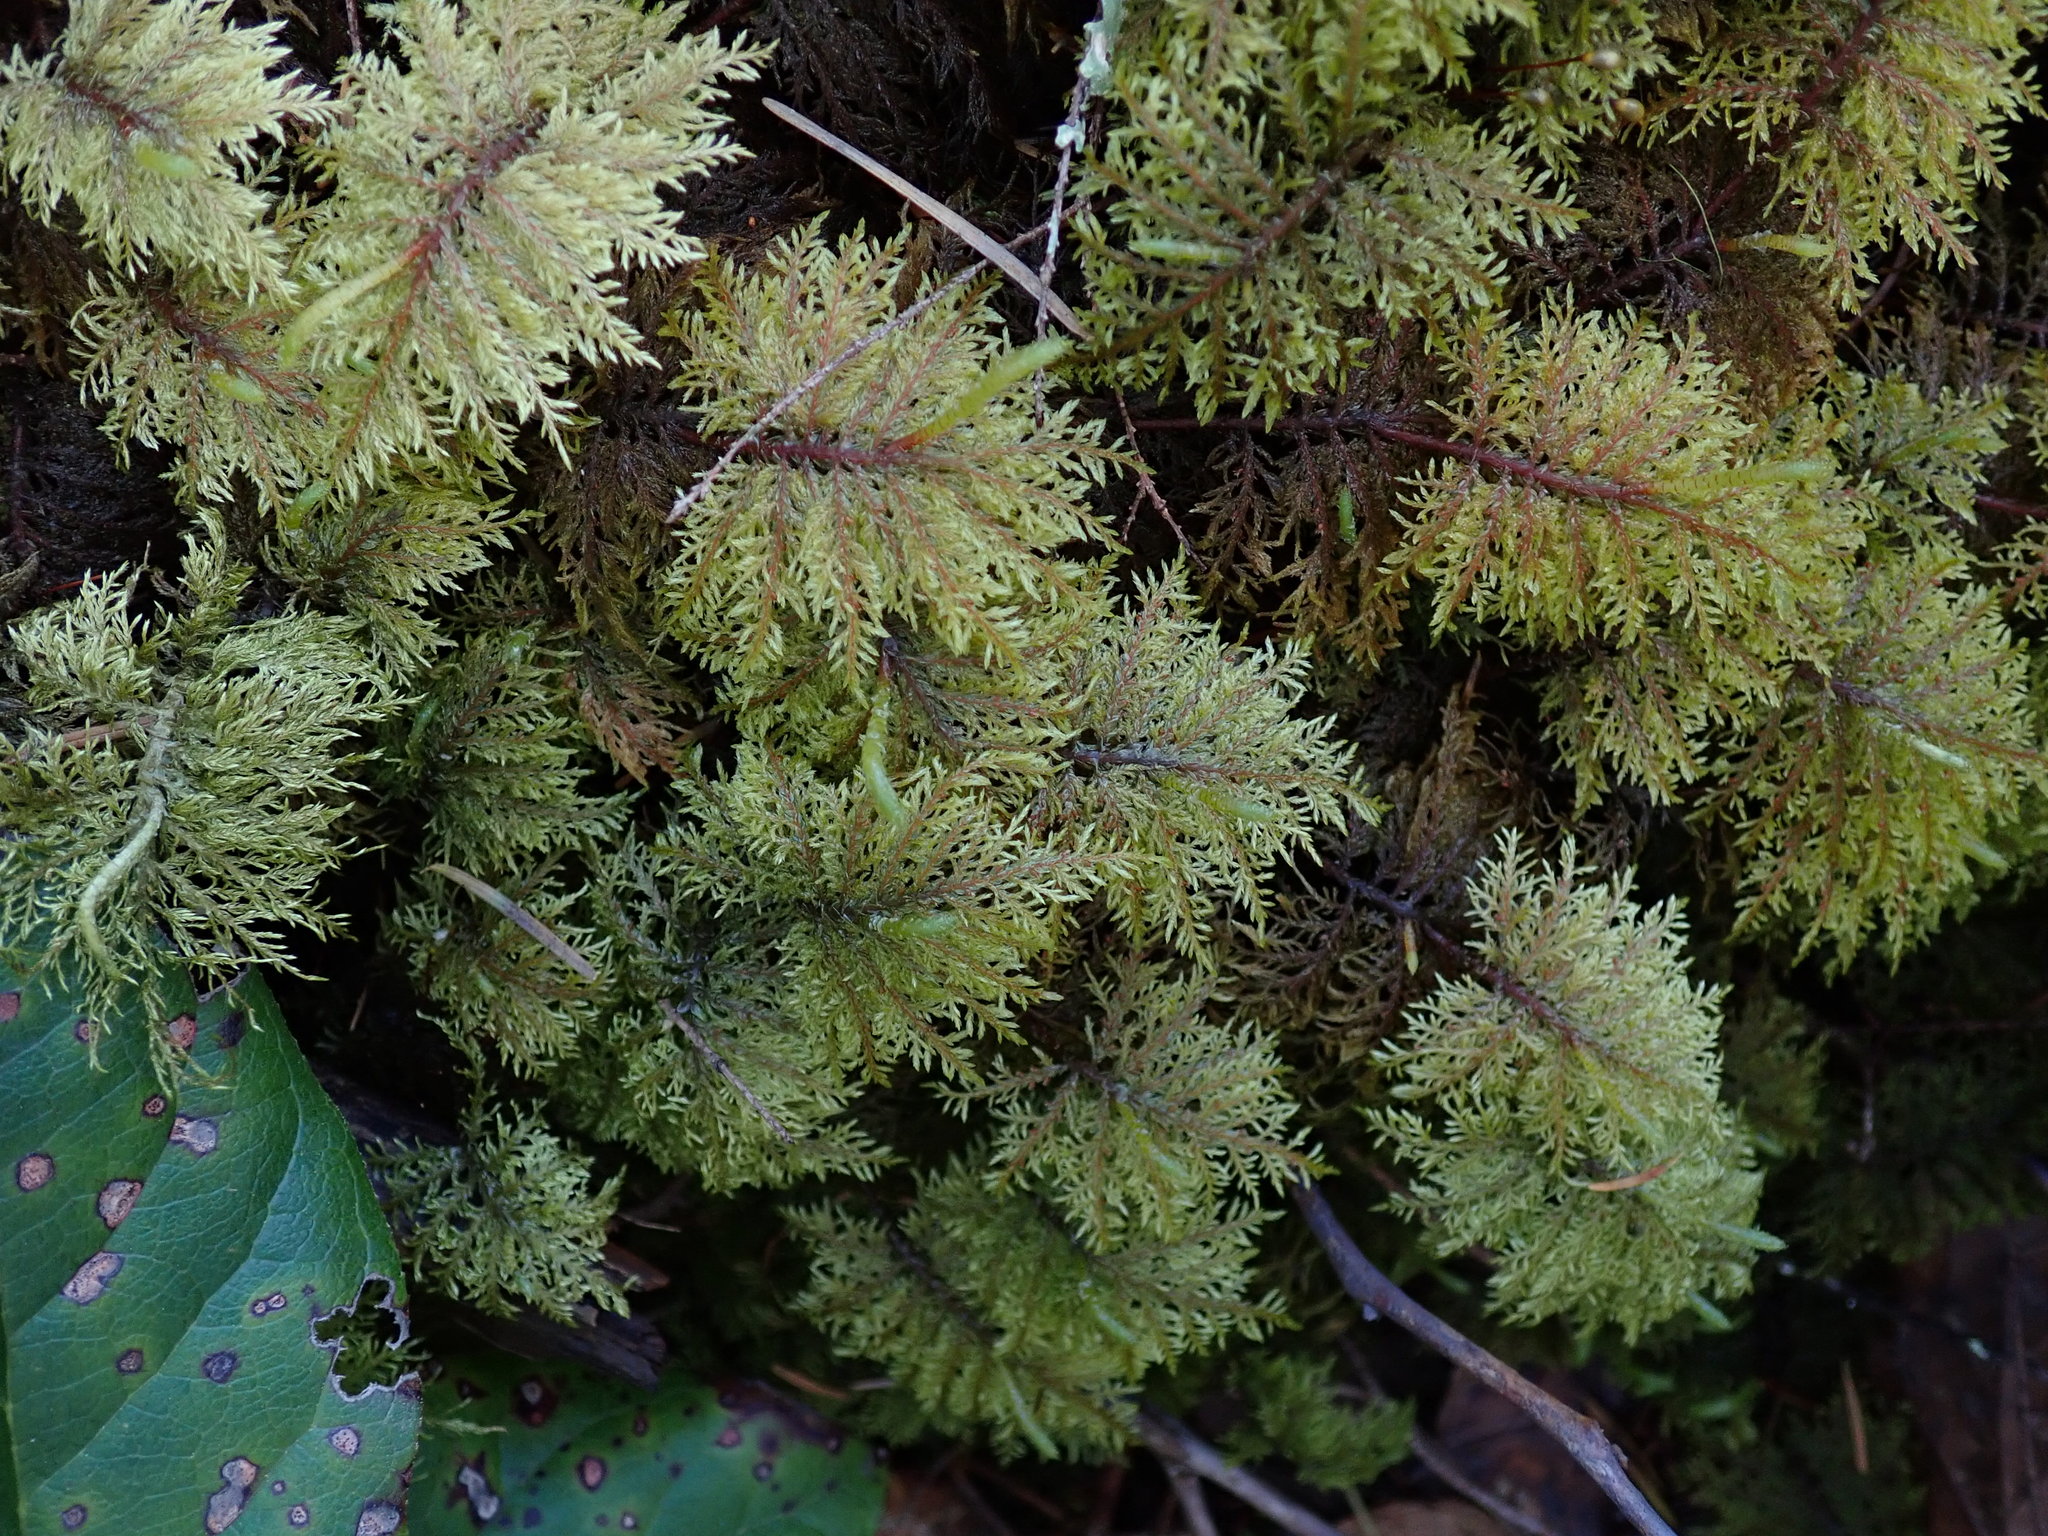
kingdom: Plantae
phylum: Bryophyta
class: Bryopsida
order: Hypnales
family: Hylocomiaceae
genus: Hylocomium
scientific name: Hylocomium splendens
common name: Stairstep moss
